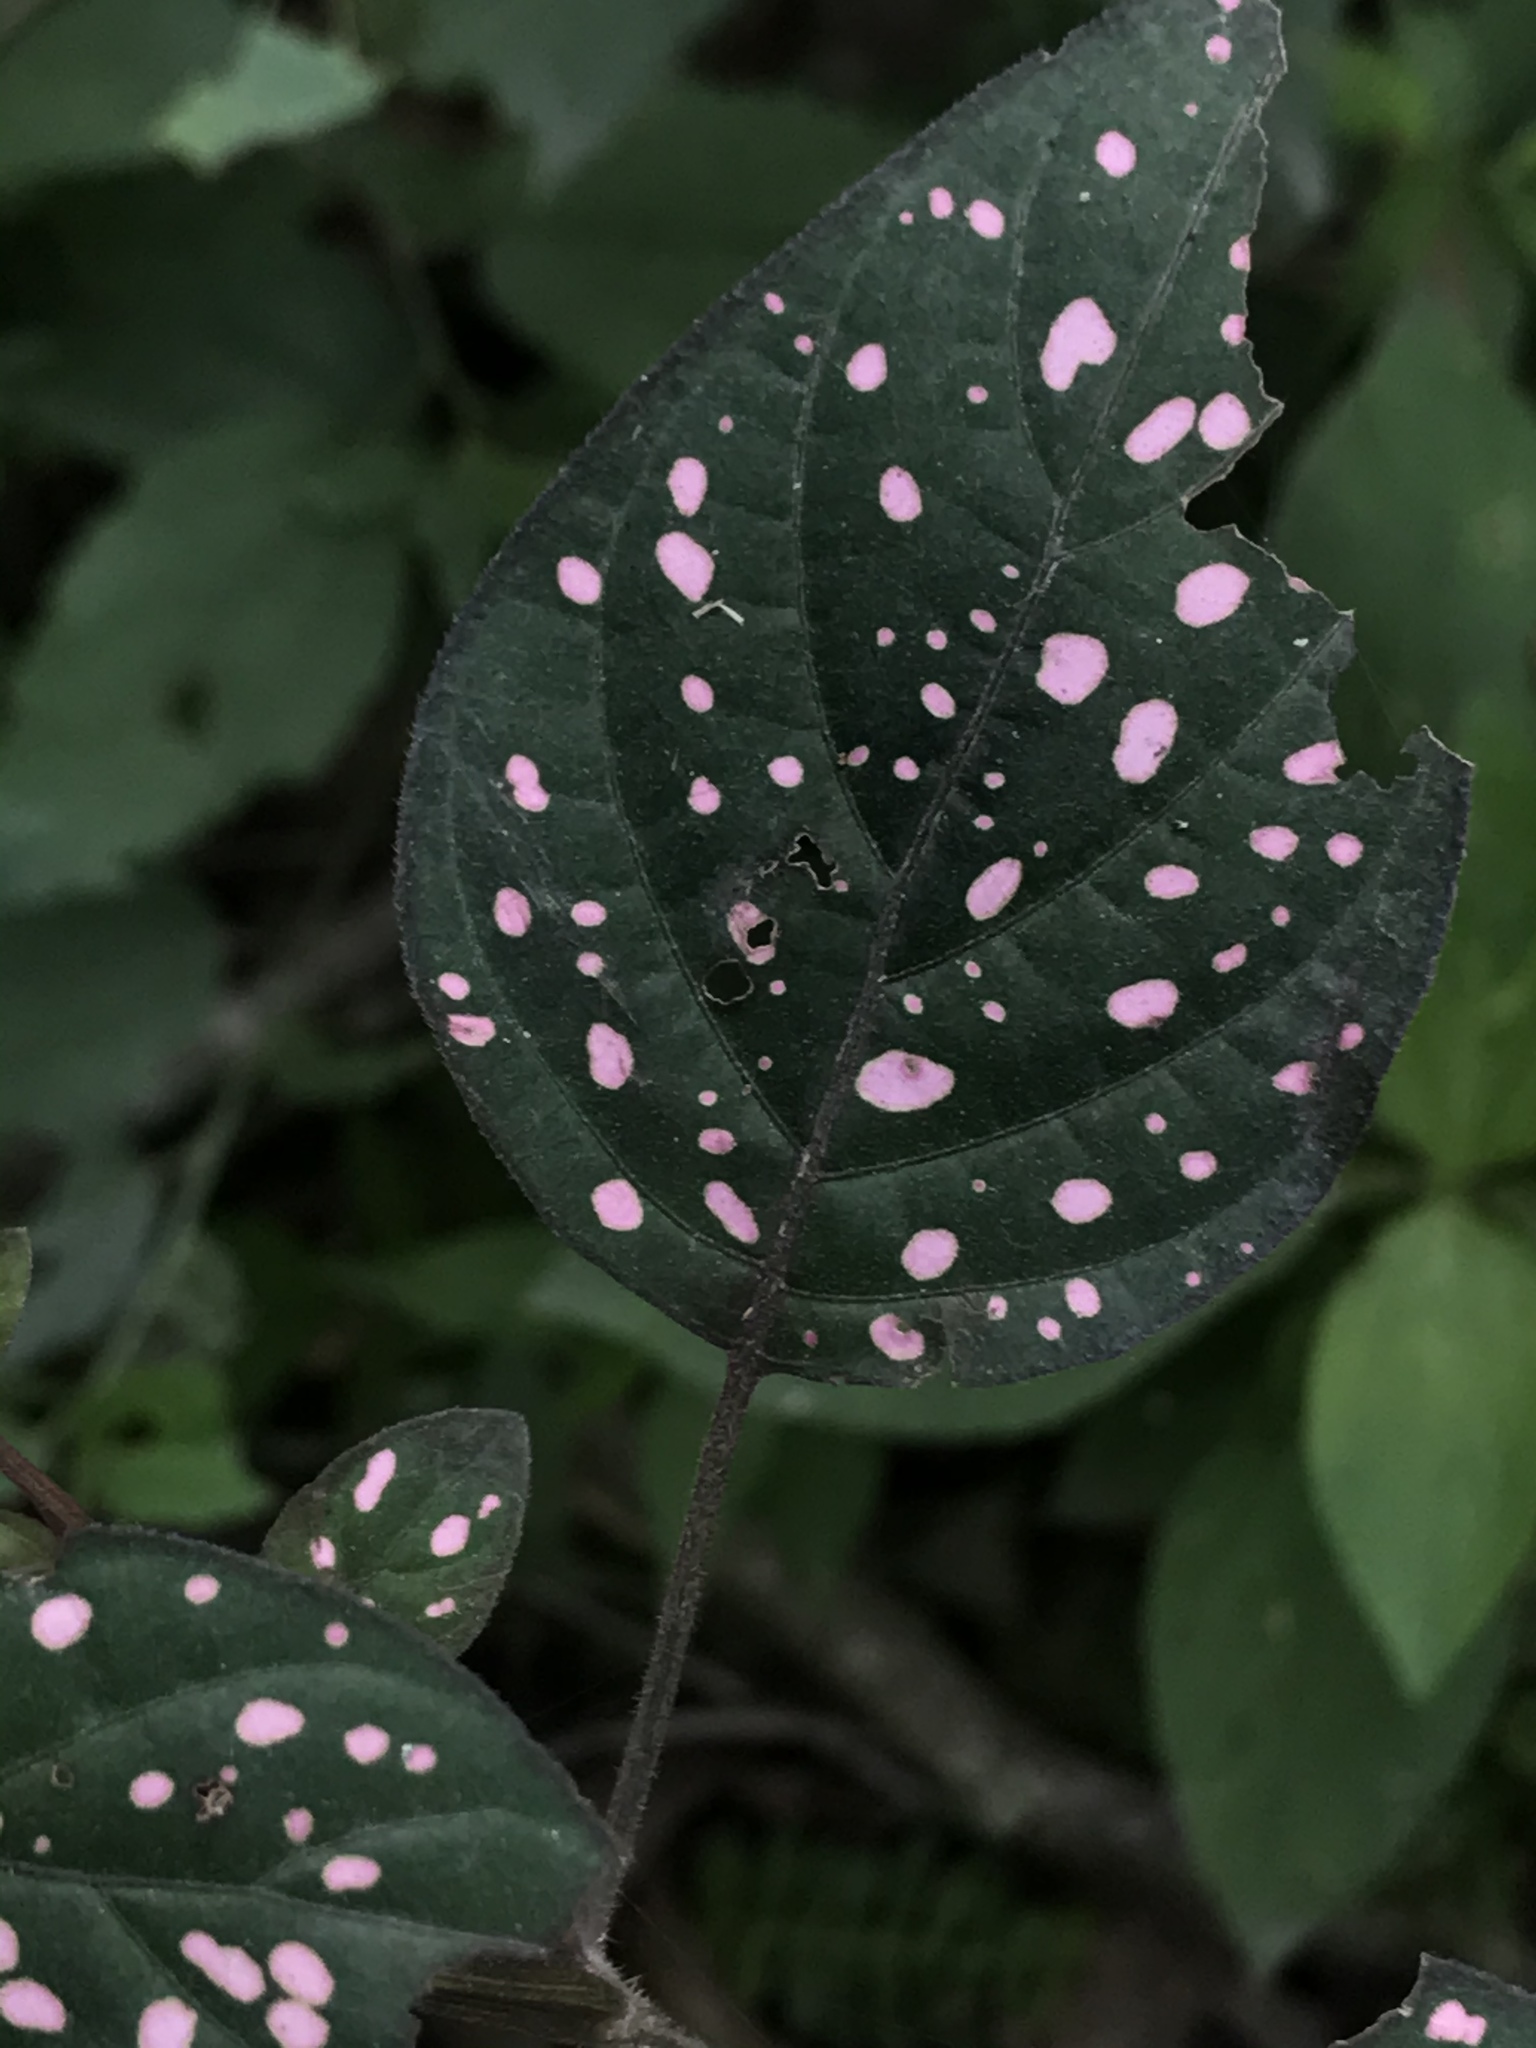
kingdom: Plantae
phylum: Tracheophyta
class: Magnoliopsida
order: Lamiales
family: Acanthaceae
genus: Hypoestes
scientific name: Hypoestes phyllostachya
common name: Polkadot-plant
